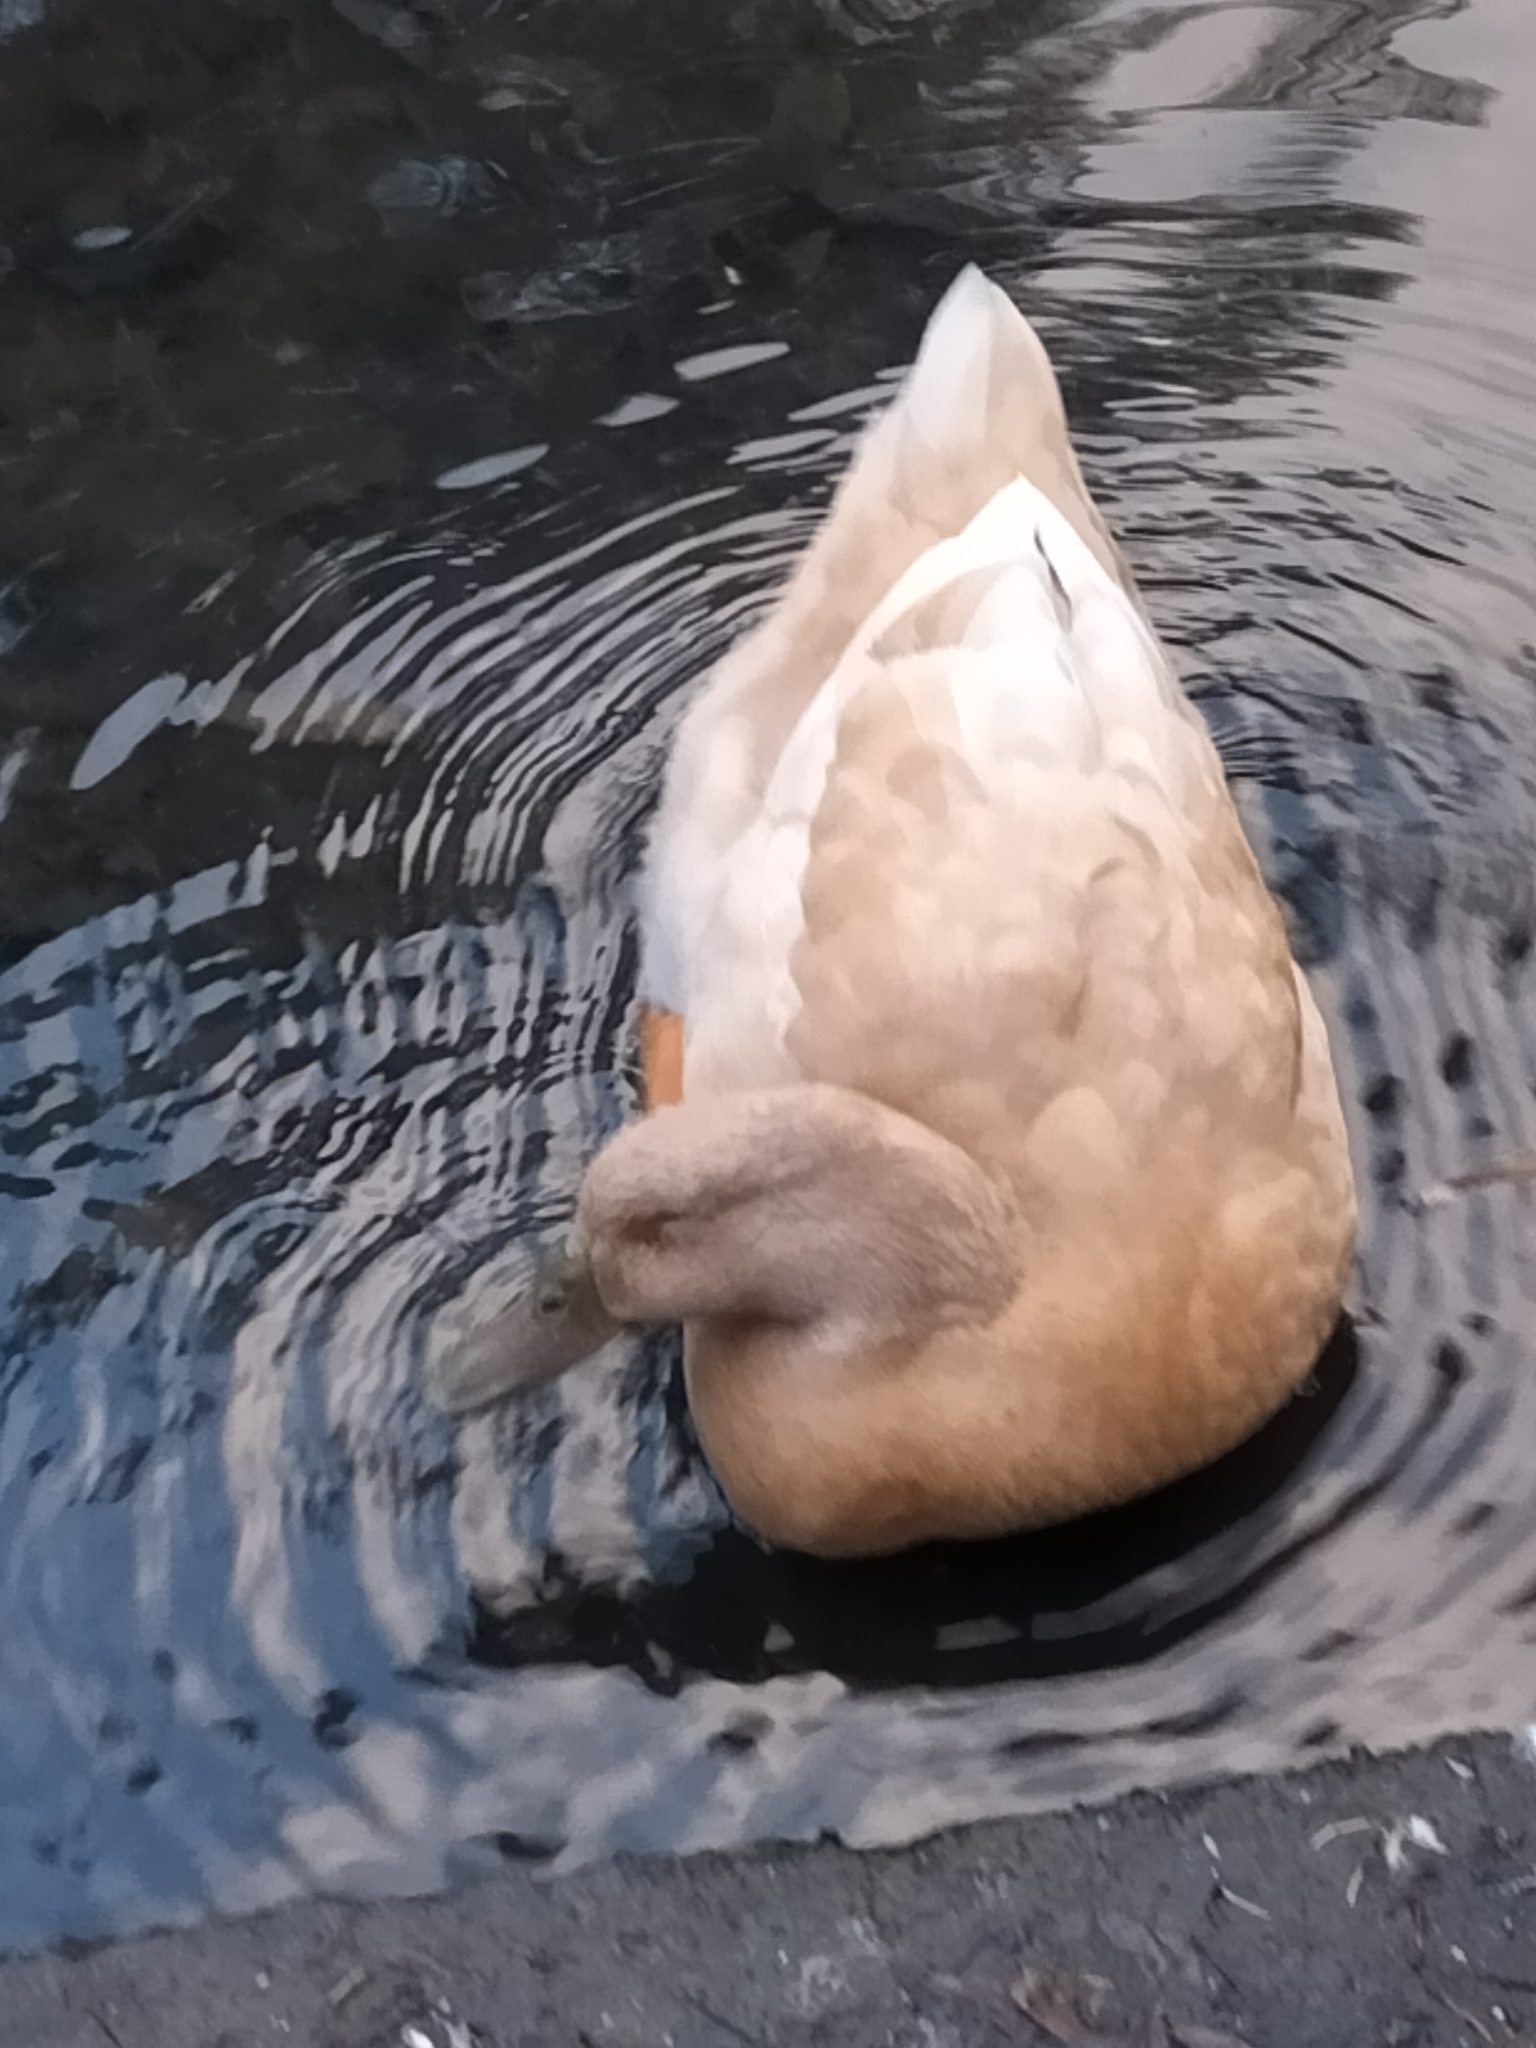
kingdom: Animalia
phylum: Chordata
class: Aves
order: Anseriformes
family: Anatidae
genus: Anas
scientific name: Anas platyrhynchos
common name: Mallard
